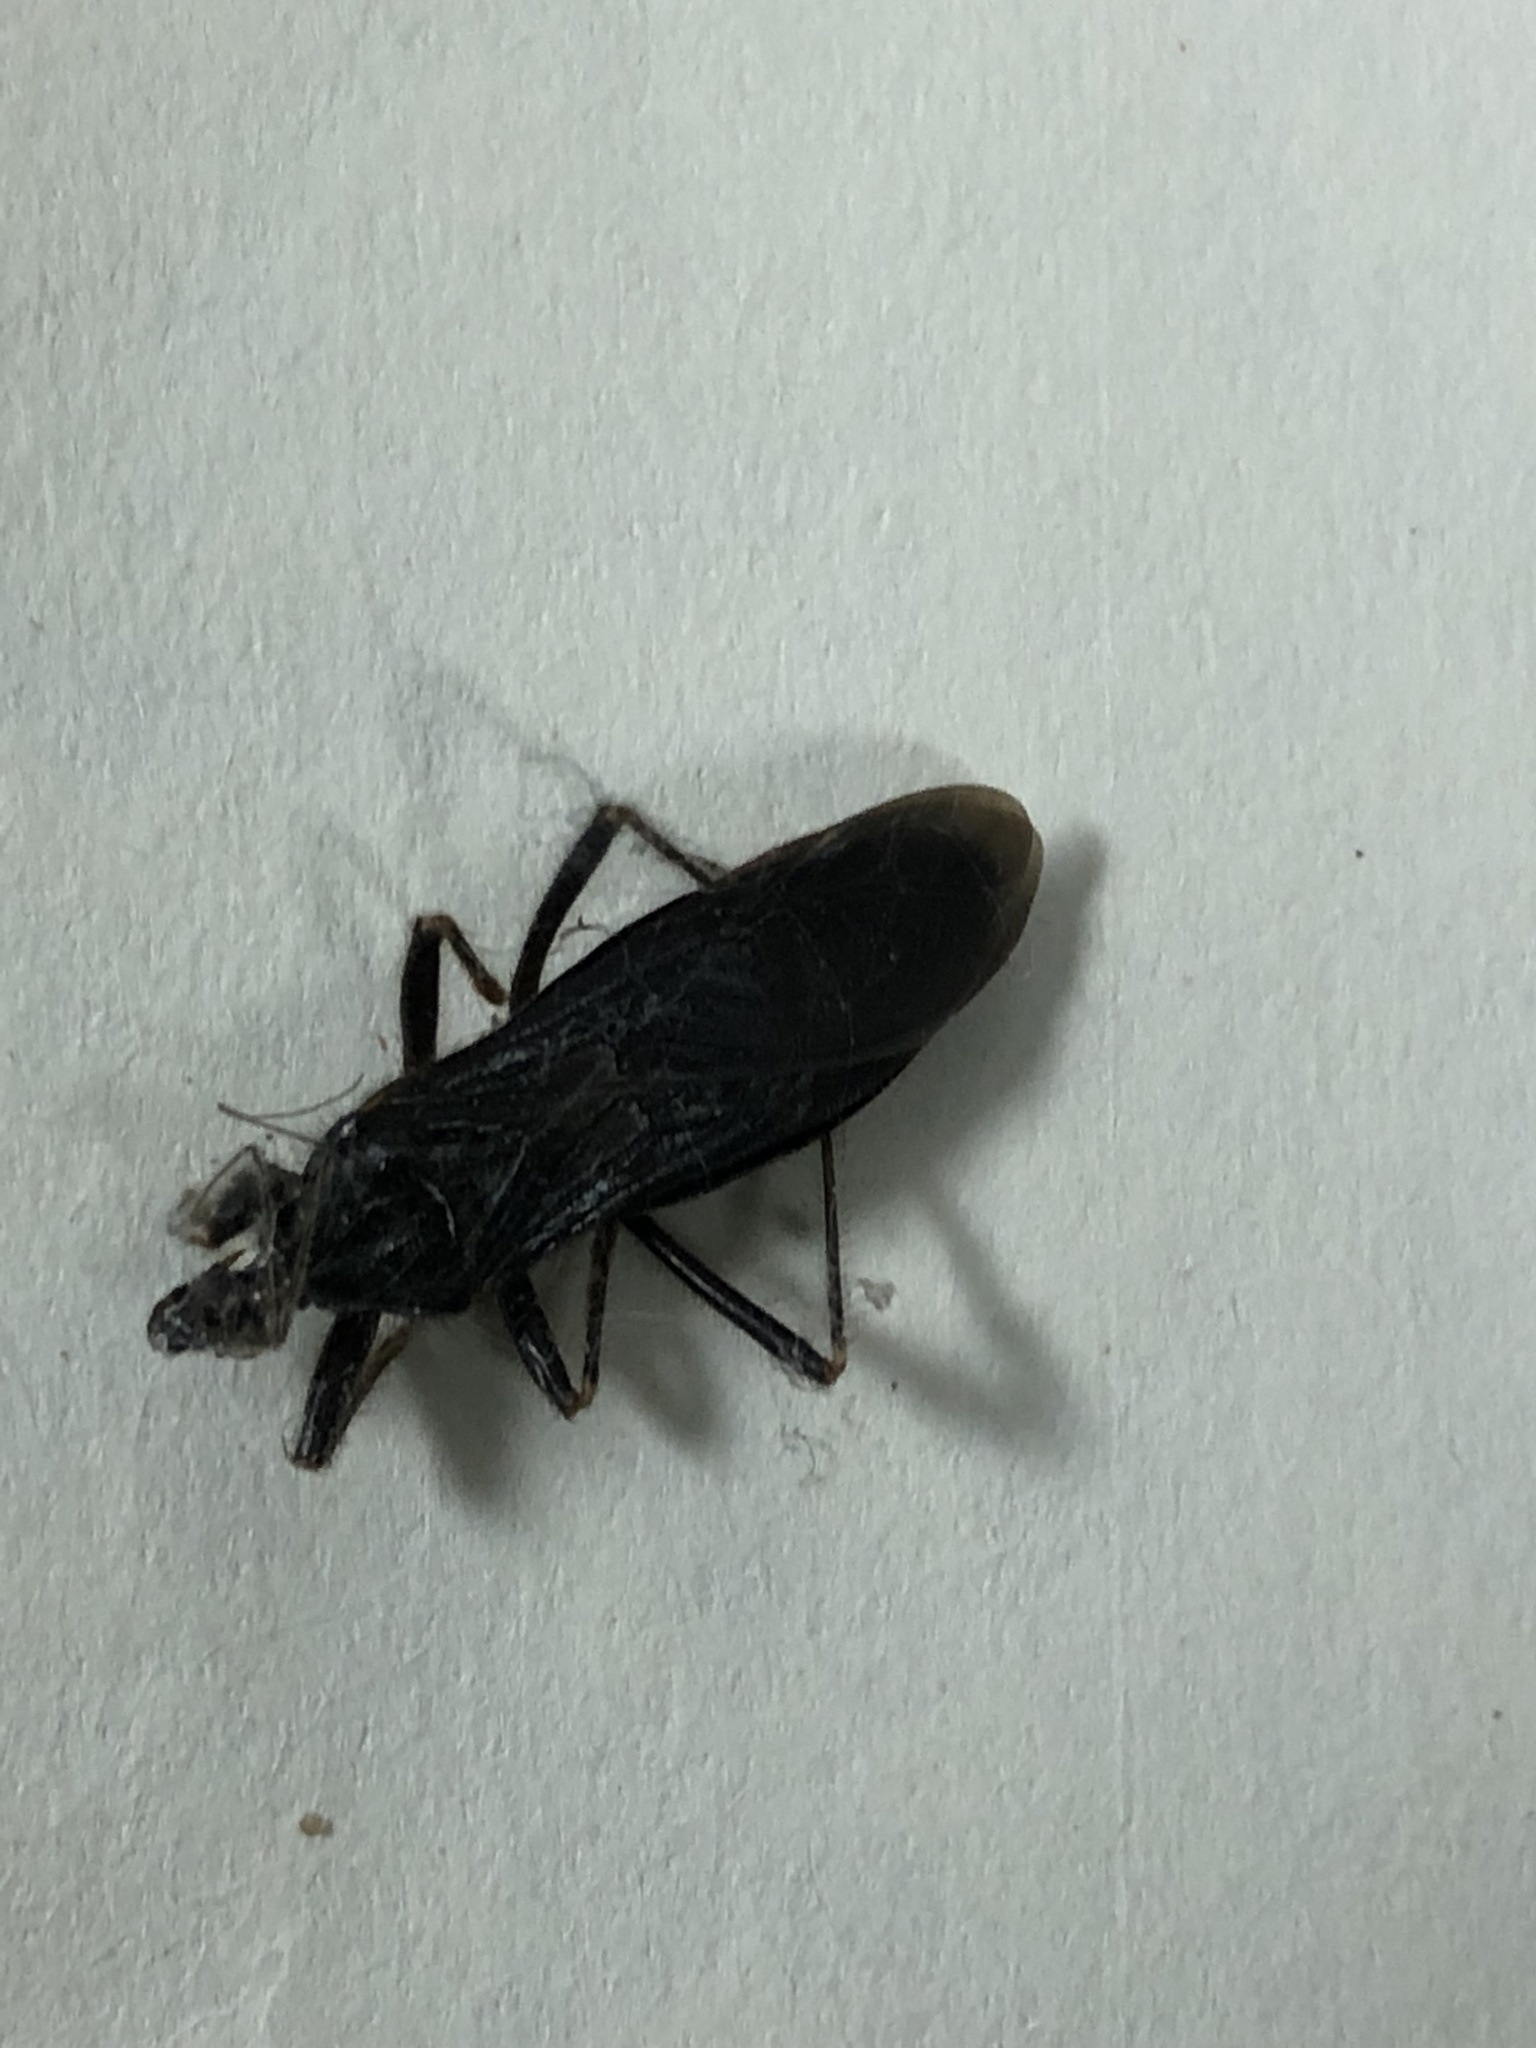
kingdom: Animalia
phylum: Arthropoda
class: Insecta
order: Hemiptera
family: Reduviidae
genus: Reduvius
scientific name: Reduvius personatus
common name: Masked hunter
